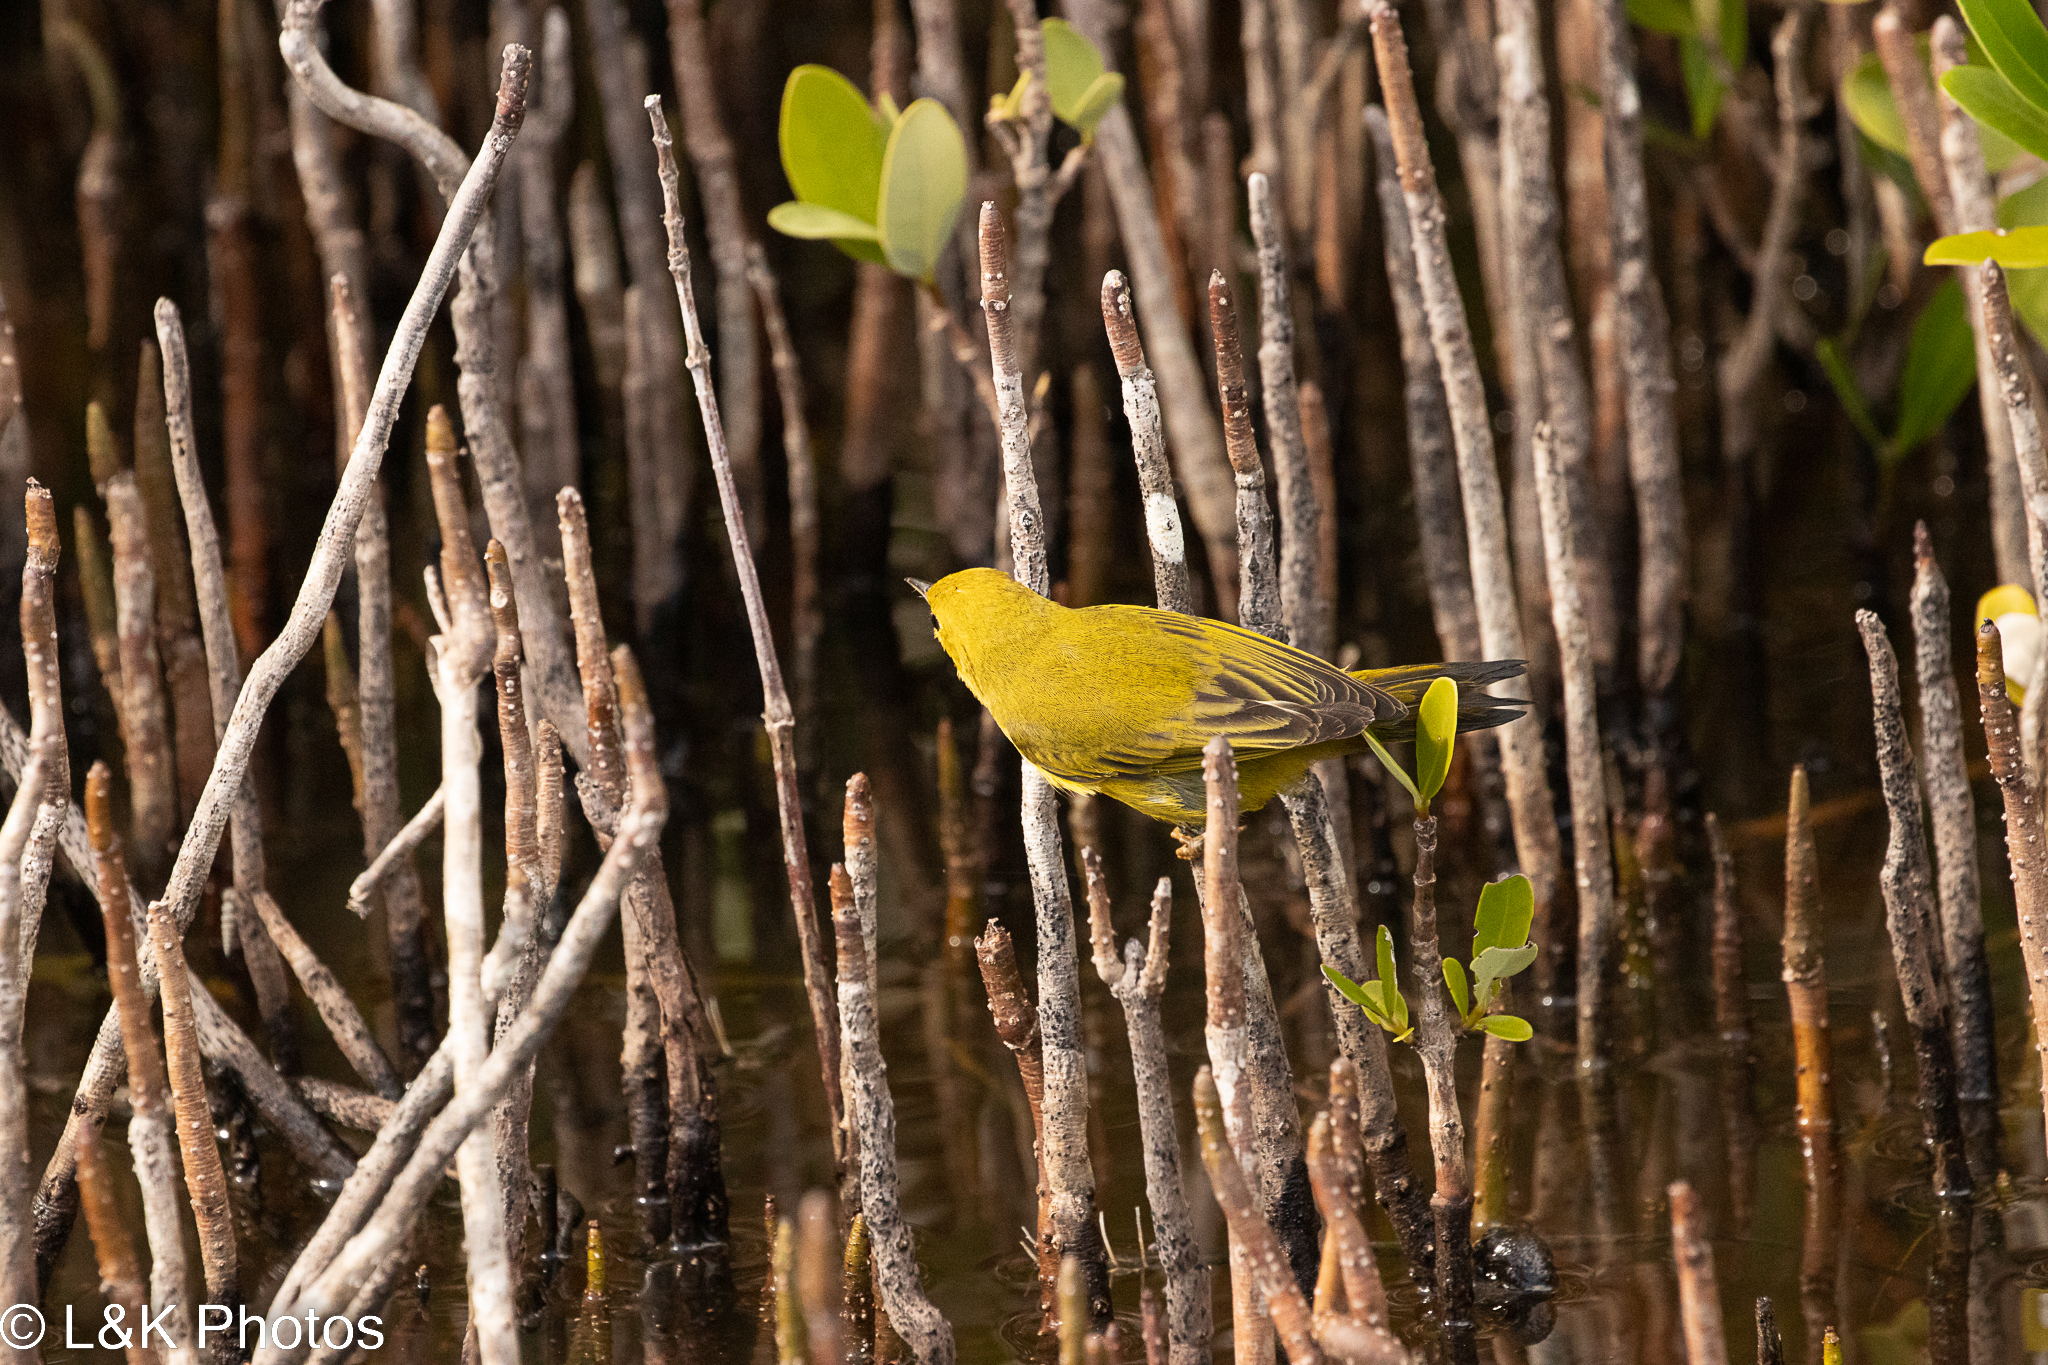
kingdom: Animalia
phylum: Chordata
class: Aves
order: Passeriformes
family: Parulidae
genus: Setophaga
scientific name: Setophaga petechia
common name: Yellow warbler
